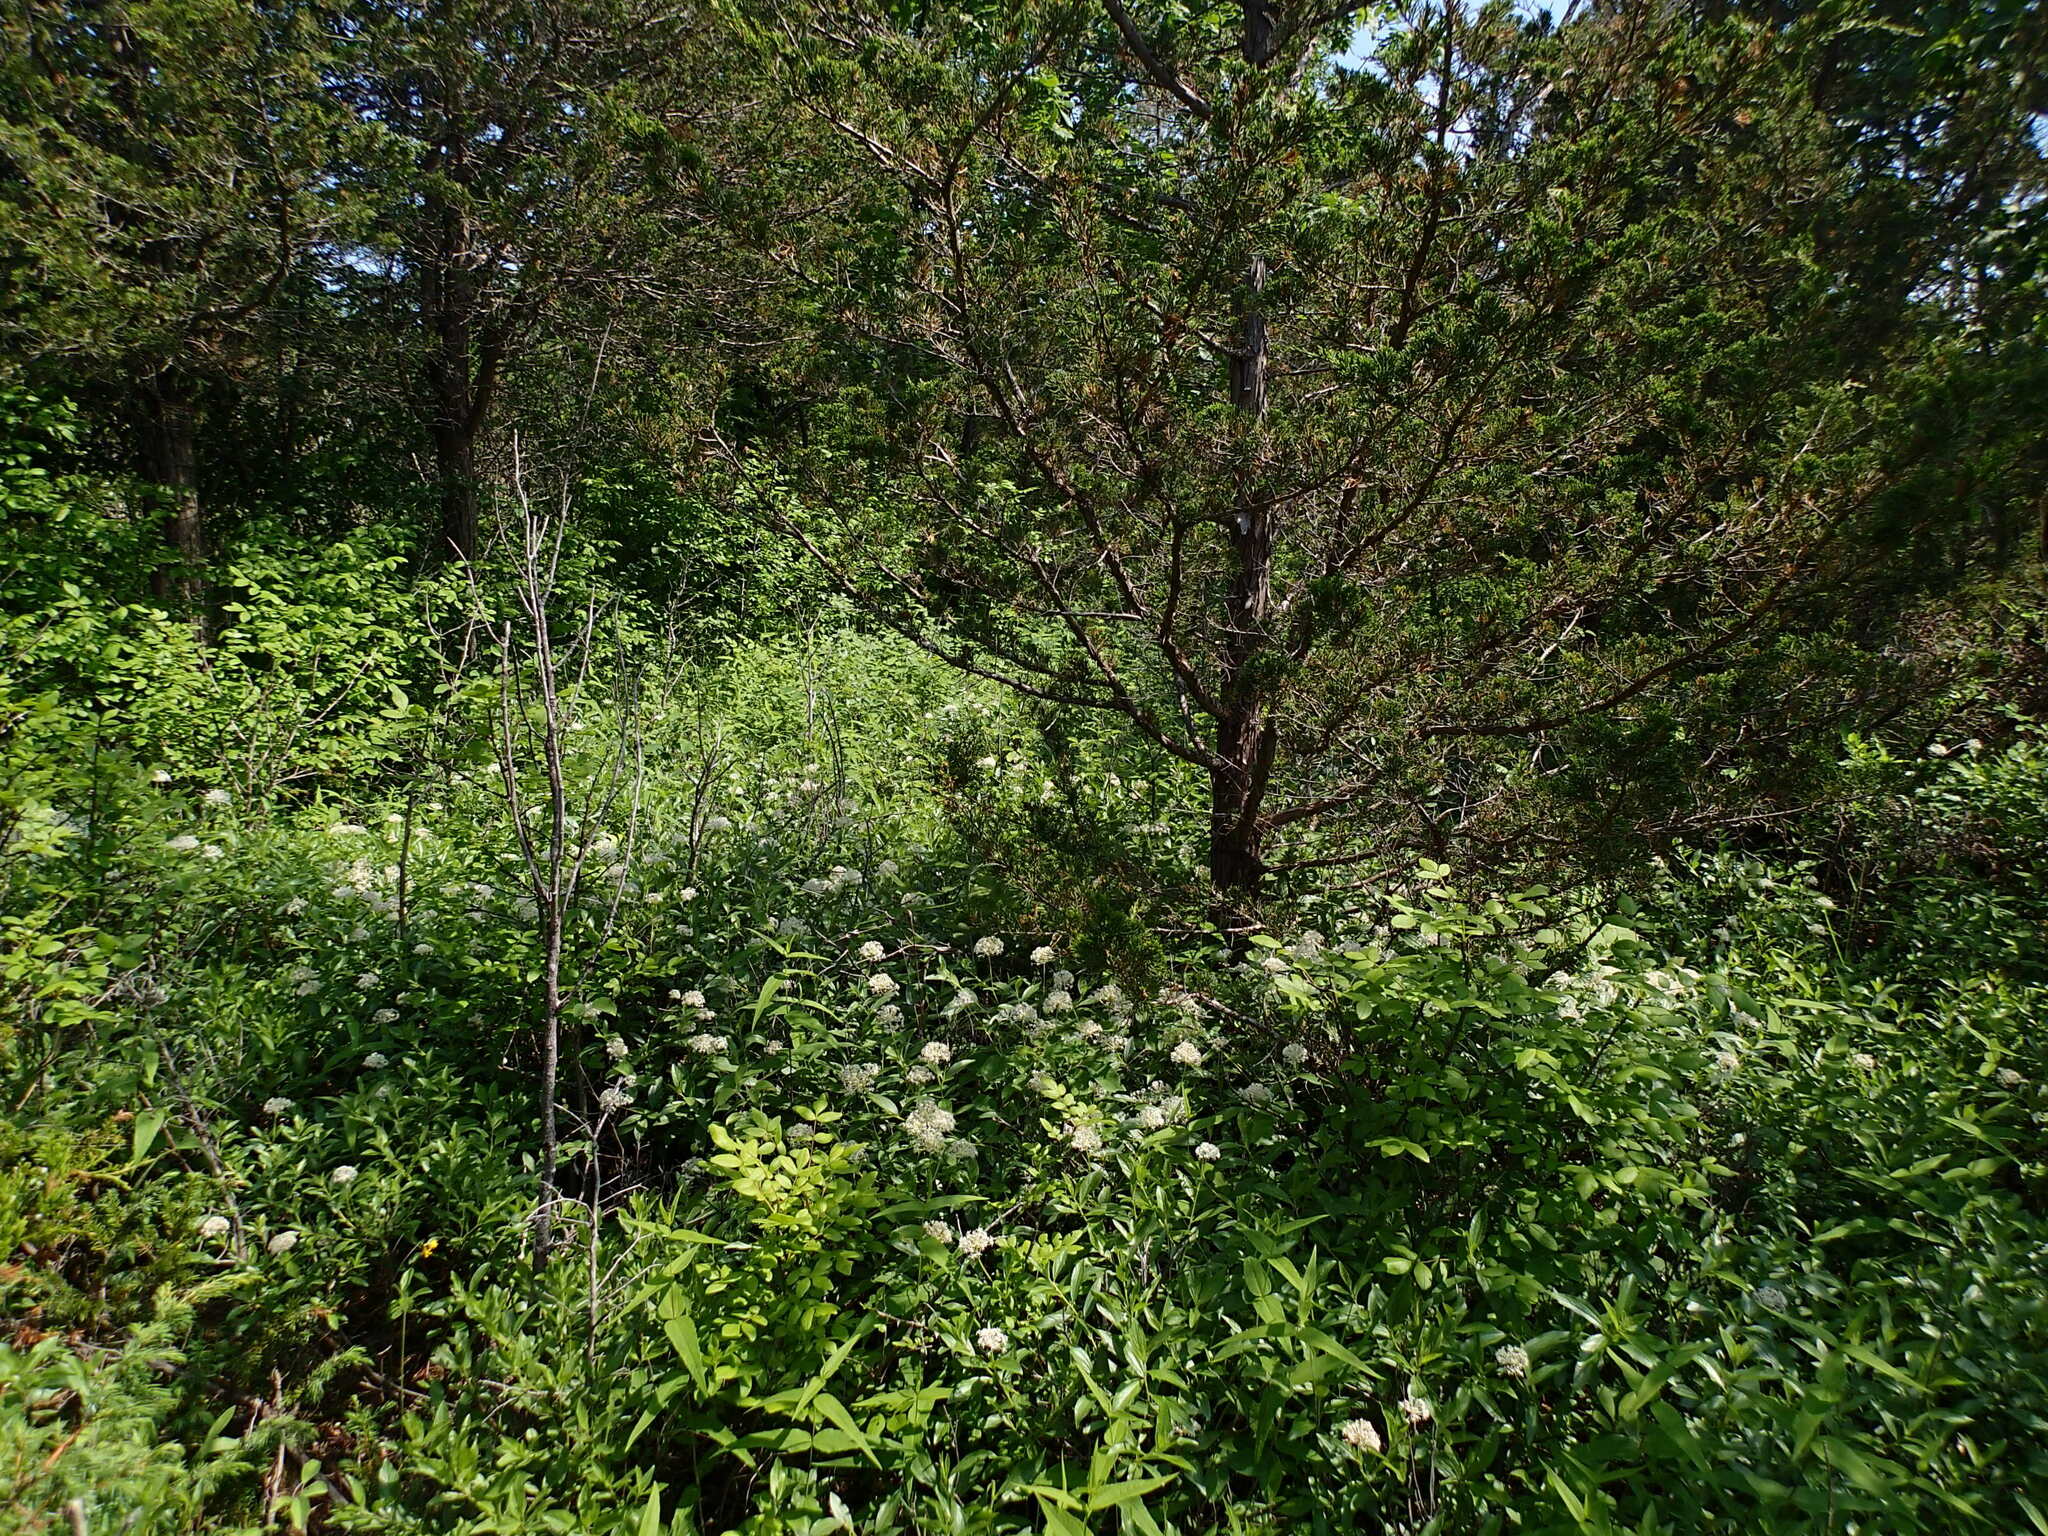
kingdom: Plantae
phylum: Tracheophyta
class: Magnoliopsida
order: Rosales
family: Rhamnaceae
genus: Ceanothus
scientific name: Ceanothus herbaceus
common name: Inland ceanothus
